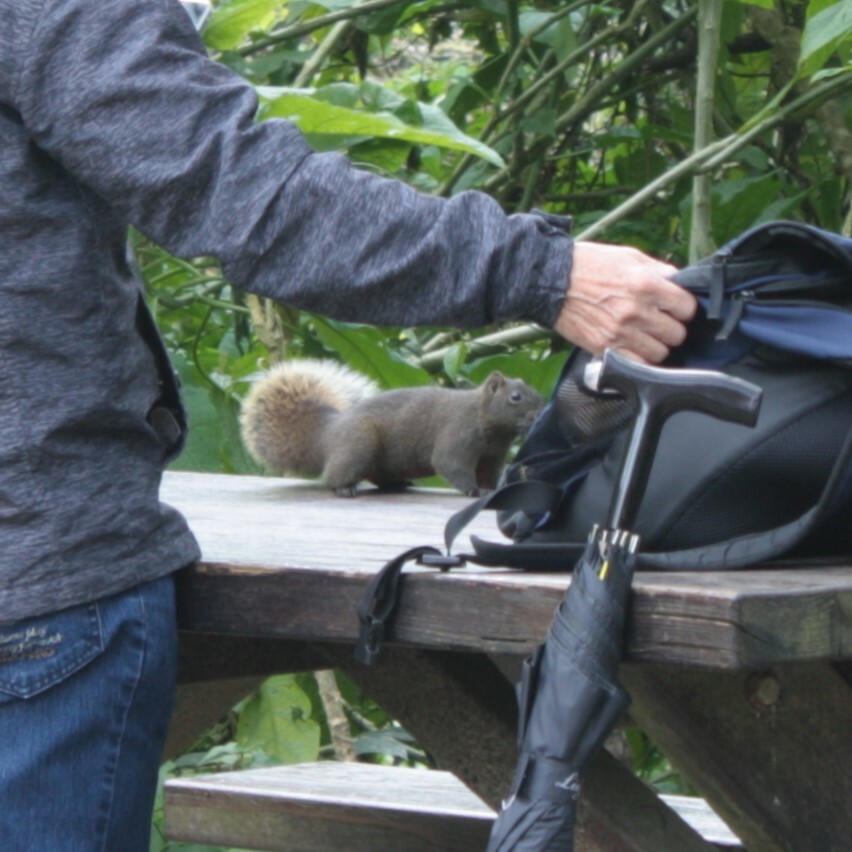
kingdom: Animalia
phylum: Chordata
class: Mammalia
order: Rodentia
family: Sciuridae
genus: Callosciurus
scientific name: Callosciurus erythraeus
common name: Pallas's squirrel
